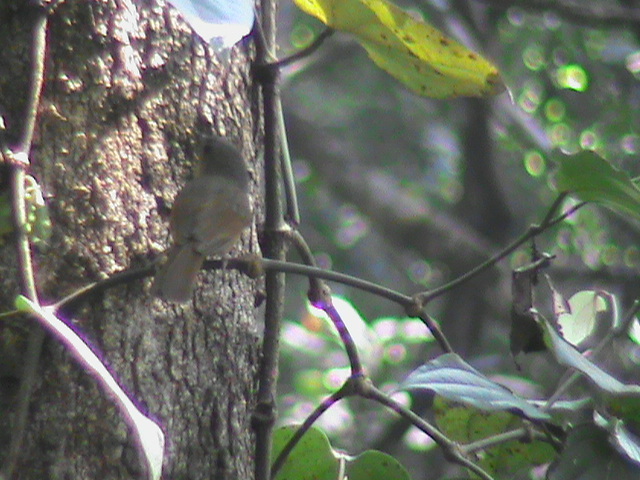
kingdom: Animalia
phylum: Chordata
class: Aves
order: Passeriformes
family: Muscicapidae
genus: Luscinia
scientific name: Luscinia brunnea
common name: Indian blue robin
